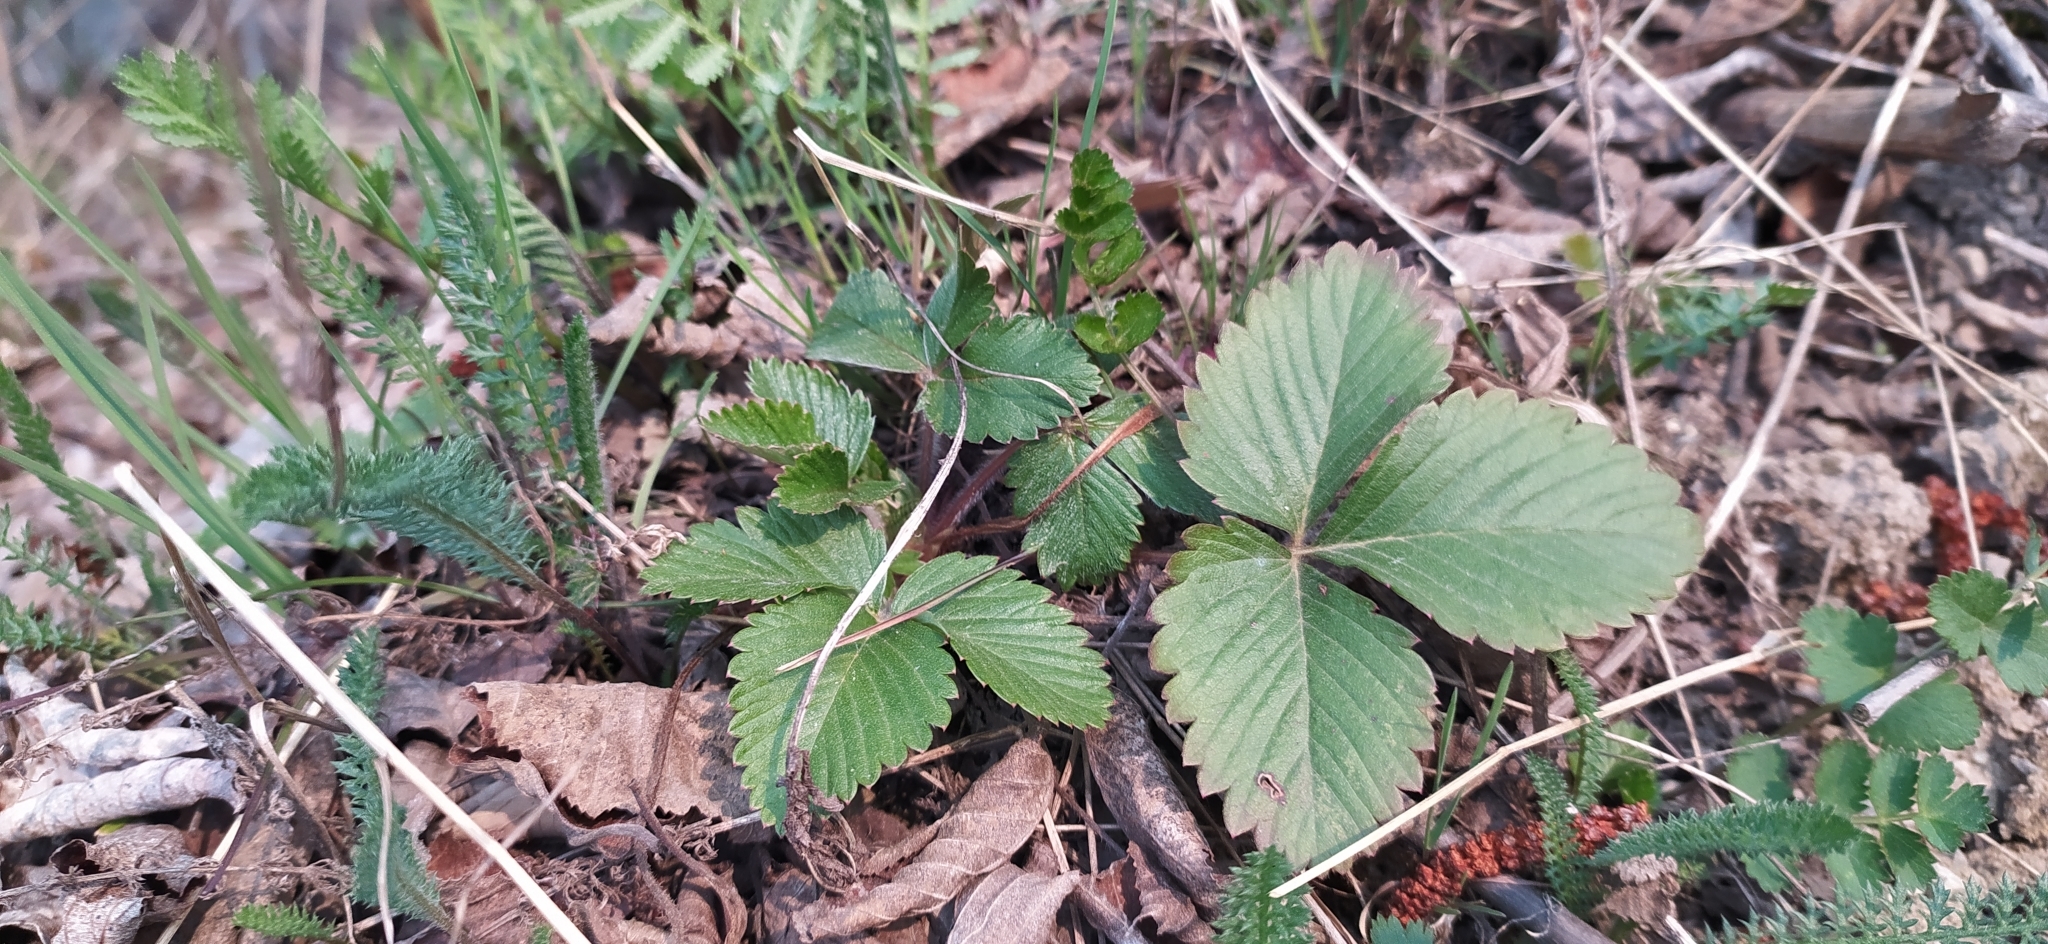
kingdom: Plantae
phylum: Tracheophyta
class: Magnoliopsida
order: Rosales
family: Rosaceae
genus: Fragaria
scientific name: Fragaria vesca
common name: Wild strawberry
